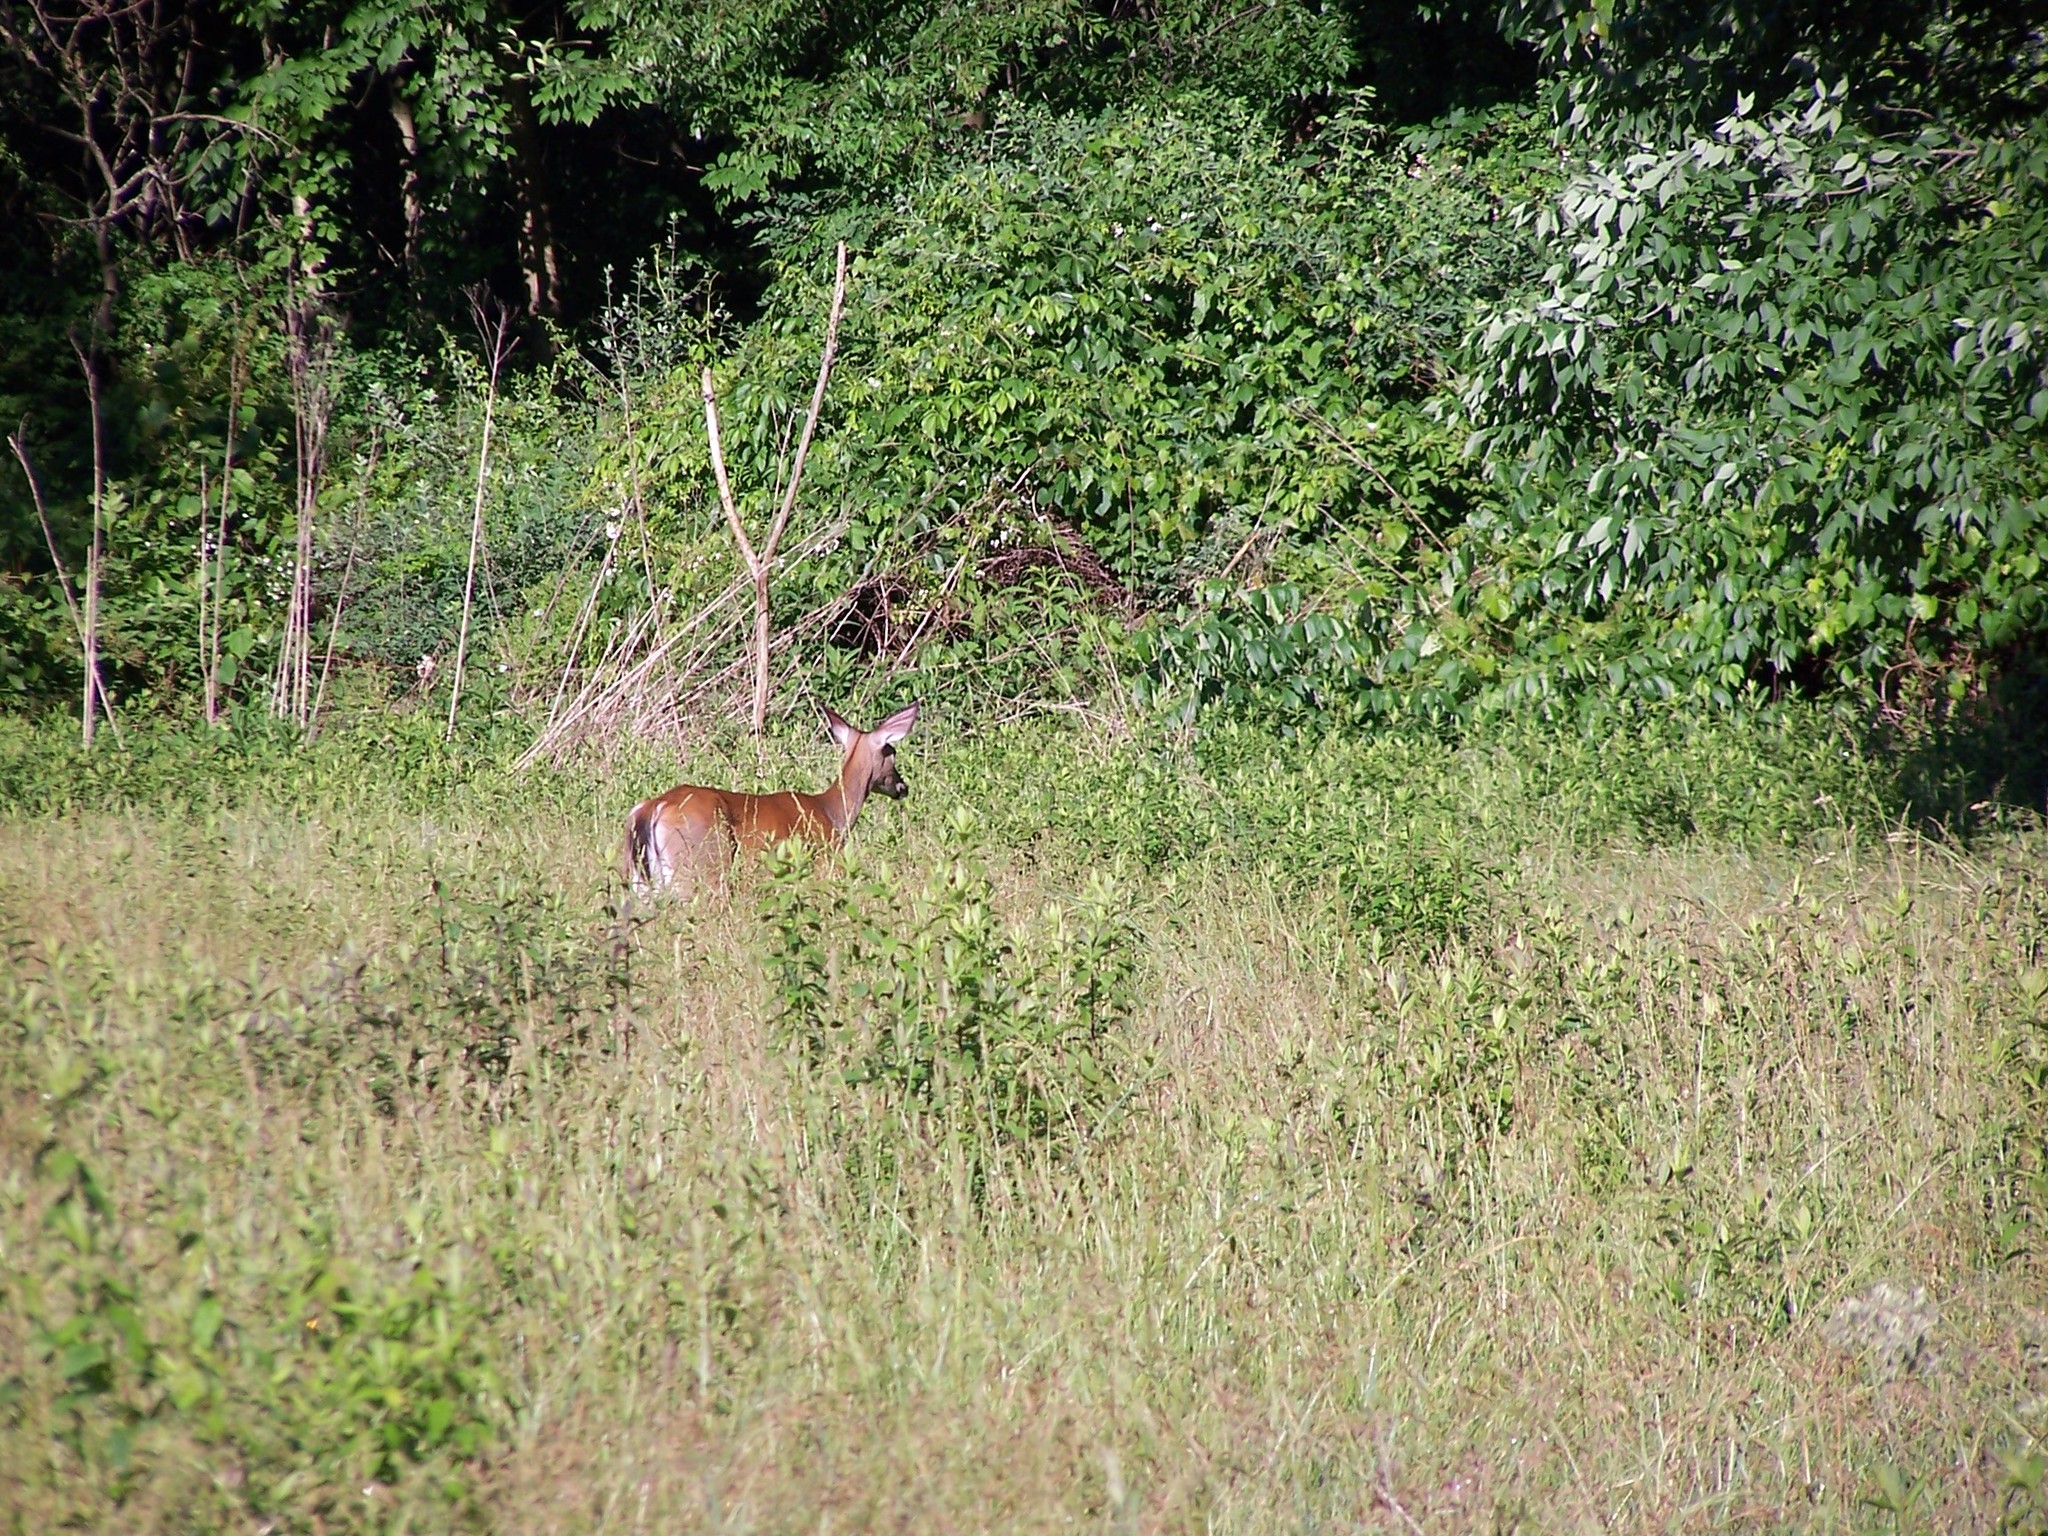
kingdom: Animalia
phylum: Chordata
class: Mammalia
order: Artiodactyla
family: Cervidae
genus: Odocoileus
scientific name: Odocoileus virginianus
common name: White-tailed deer
